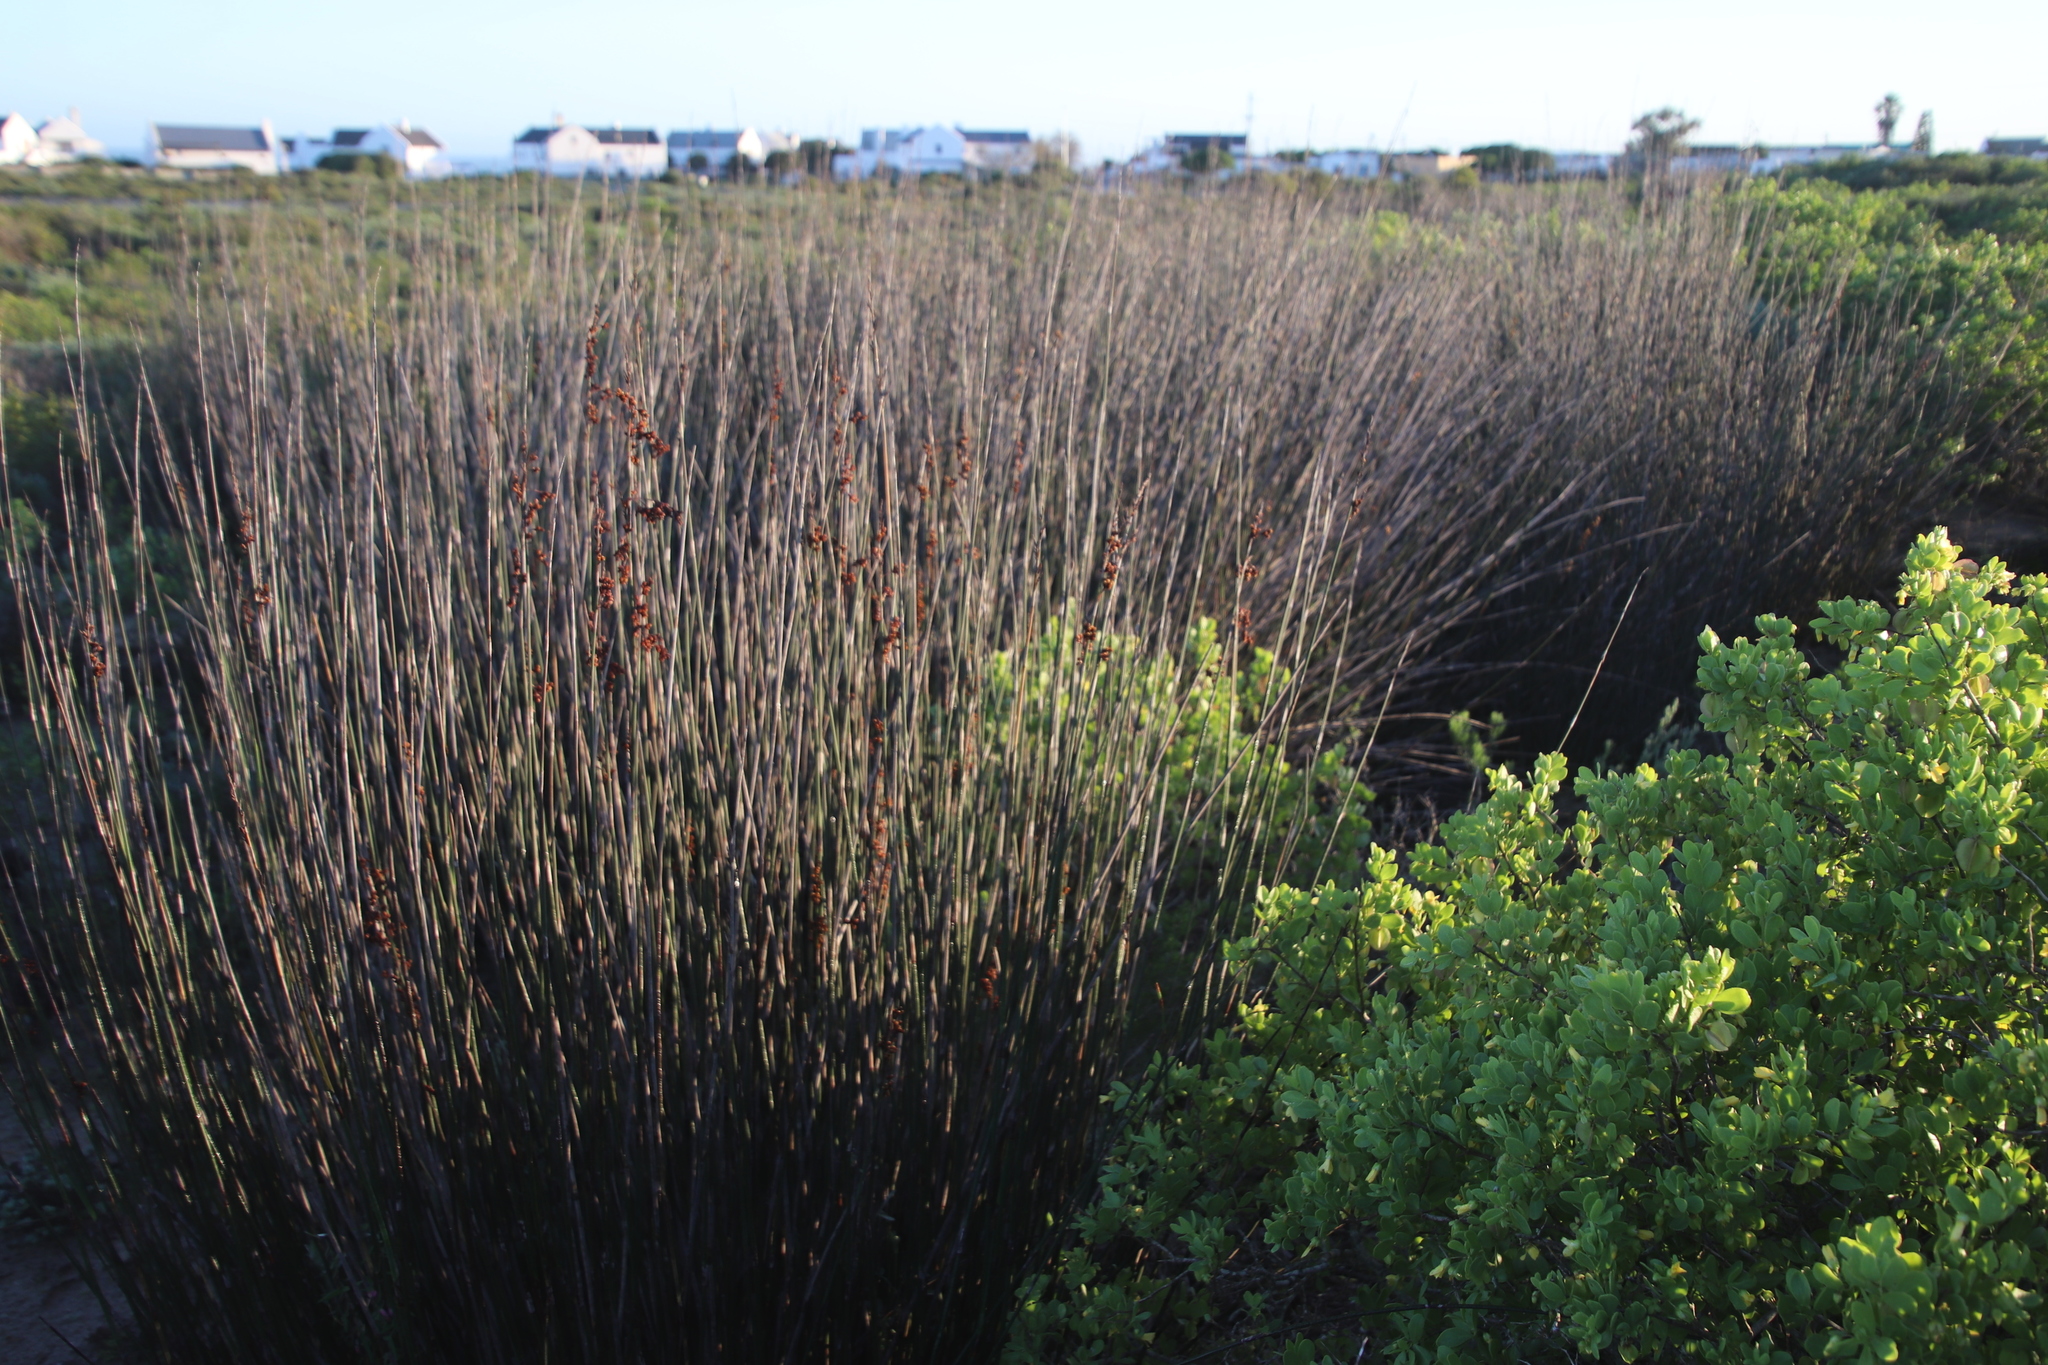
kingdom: Plantae
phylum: Tracheophyta
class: Liliopsida
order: Poales
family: Restionaceae
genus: Thamnochortus
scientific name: Thamnochortus spicigerus
